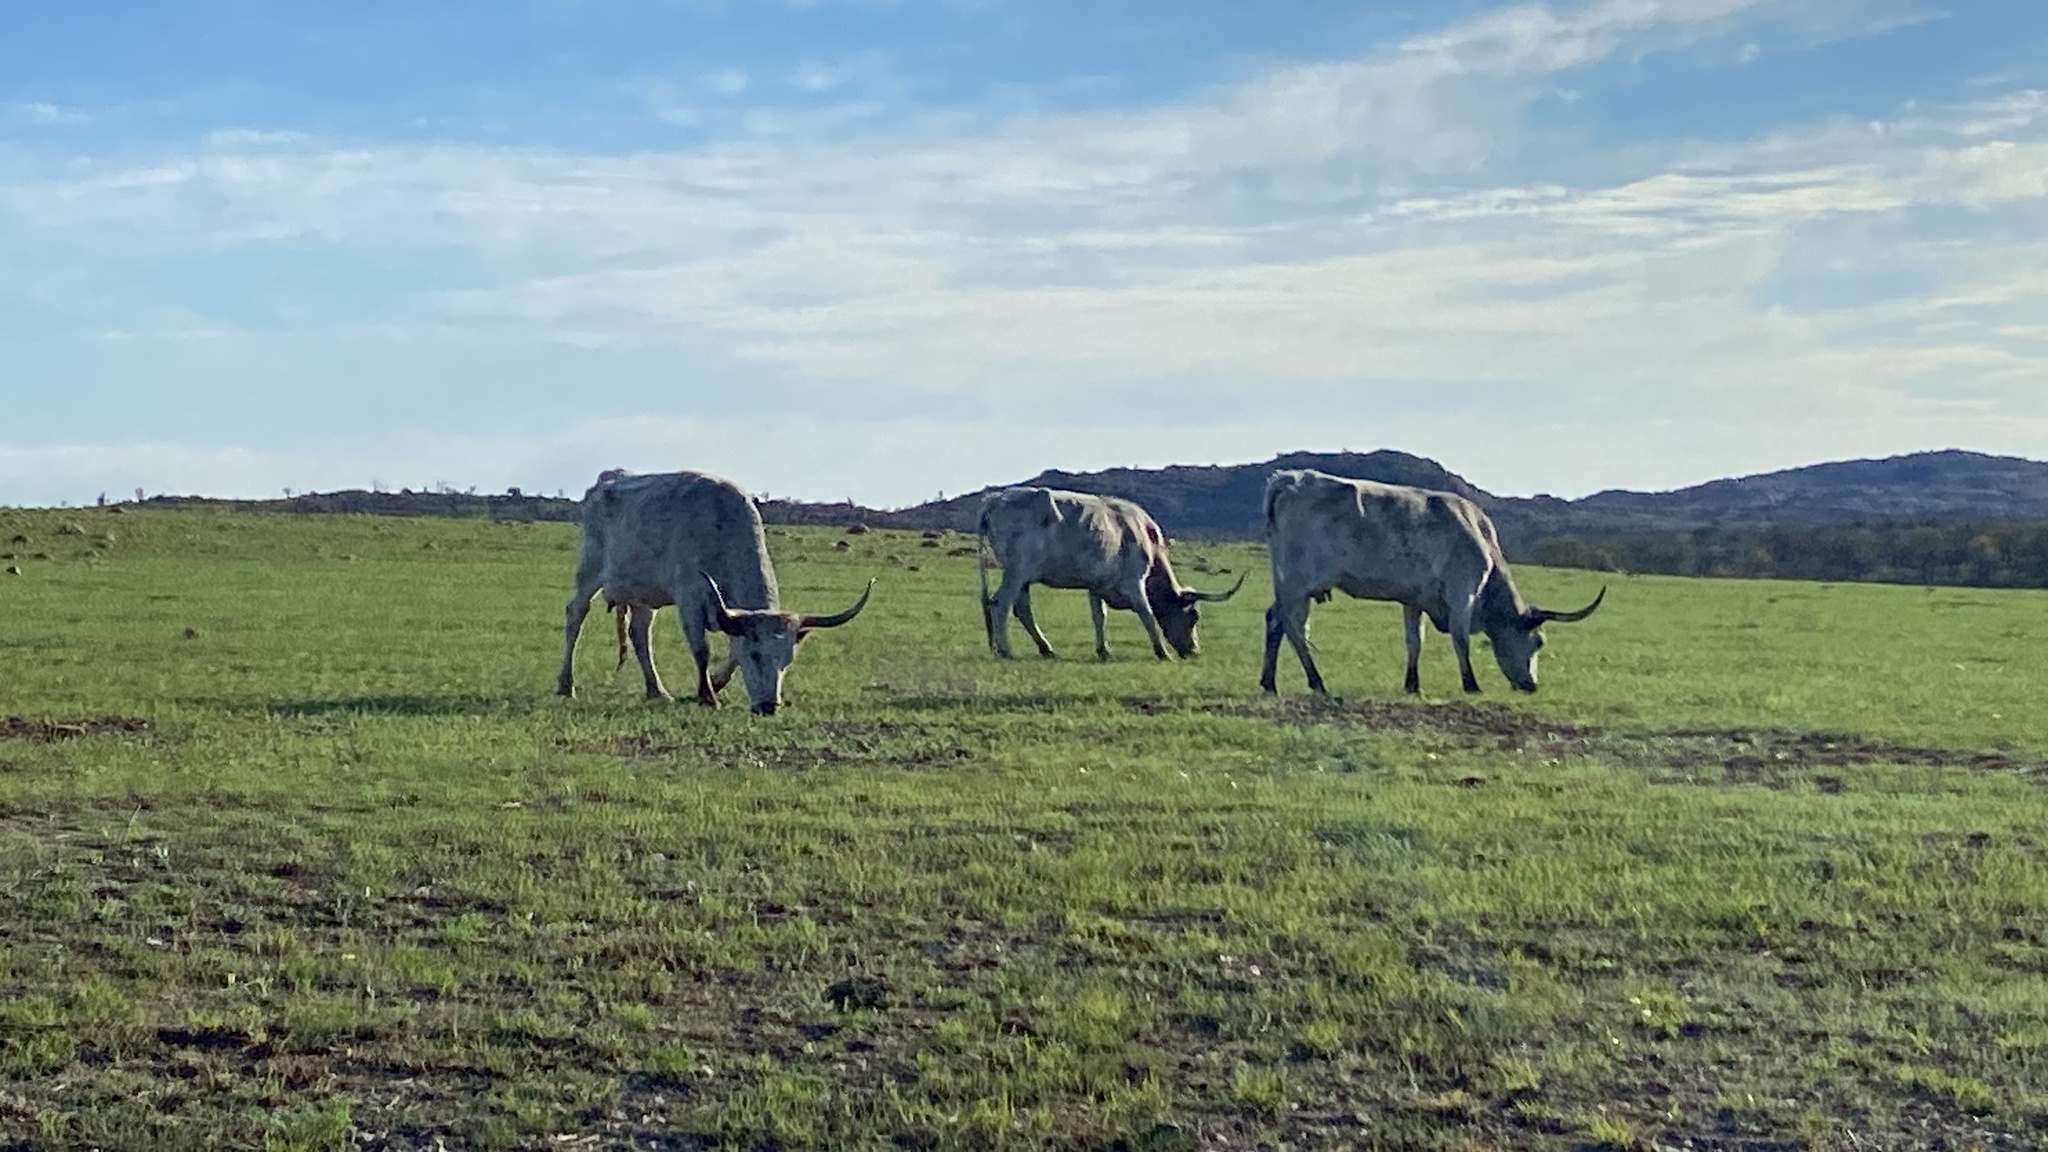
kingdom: Animalia
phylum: Chordata
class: Mammalia
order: Artiodactyla
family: Bovidae
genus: Bos
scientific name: Bos taurus
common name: Domesticated cattle
